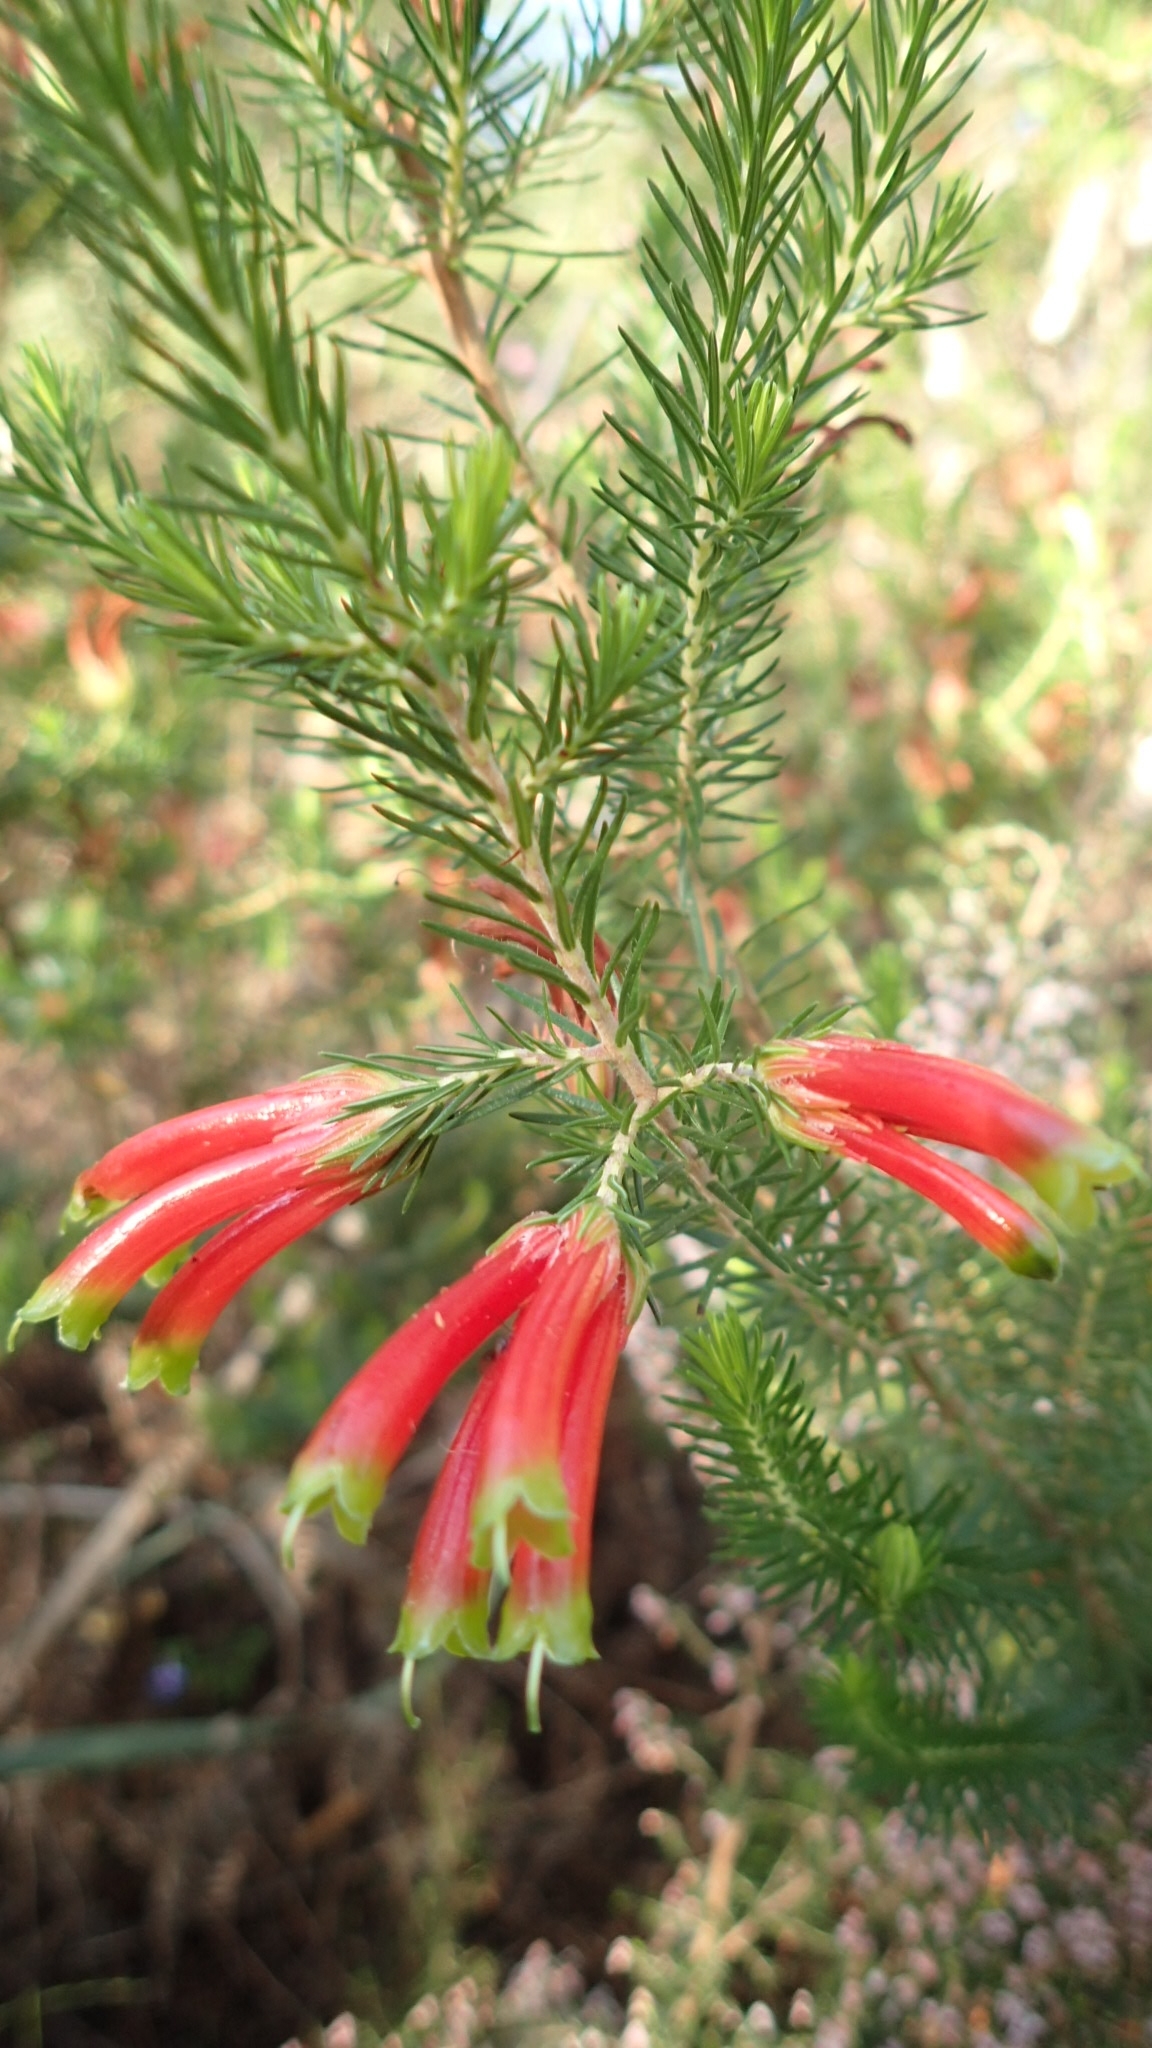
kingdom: Plantae
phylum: Tracheophyta
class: Magnoliopsida
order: Ericales
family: Ericaceae
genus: Erica
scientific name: Erica unicolor
